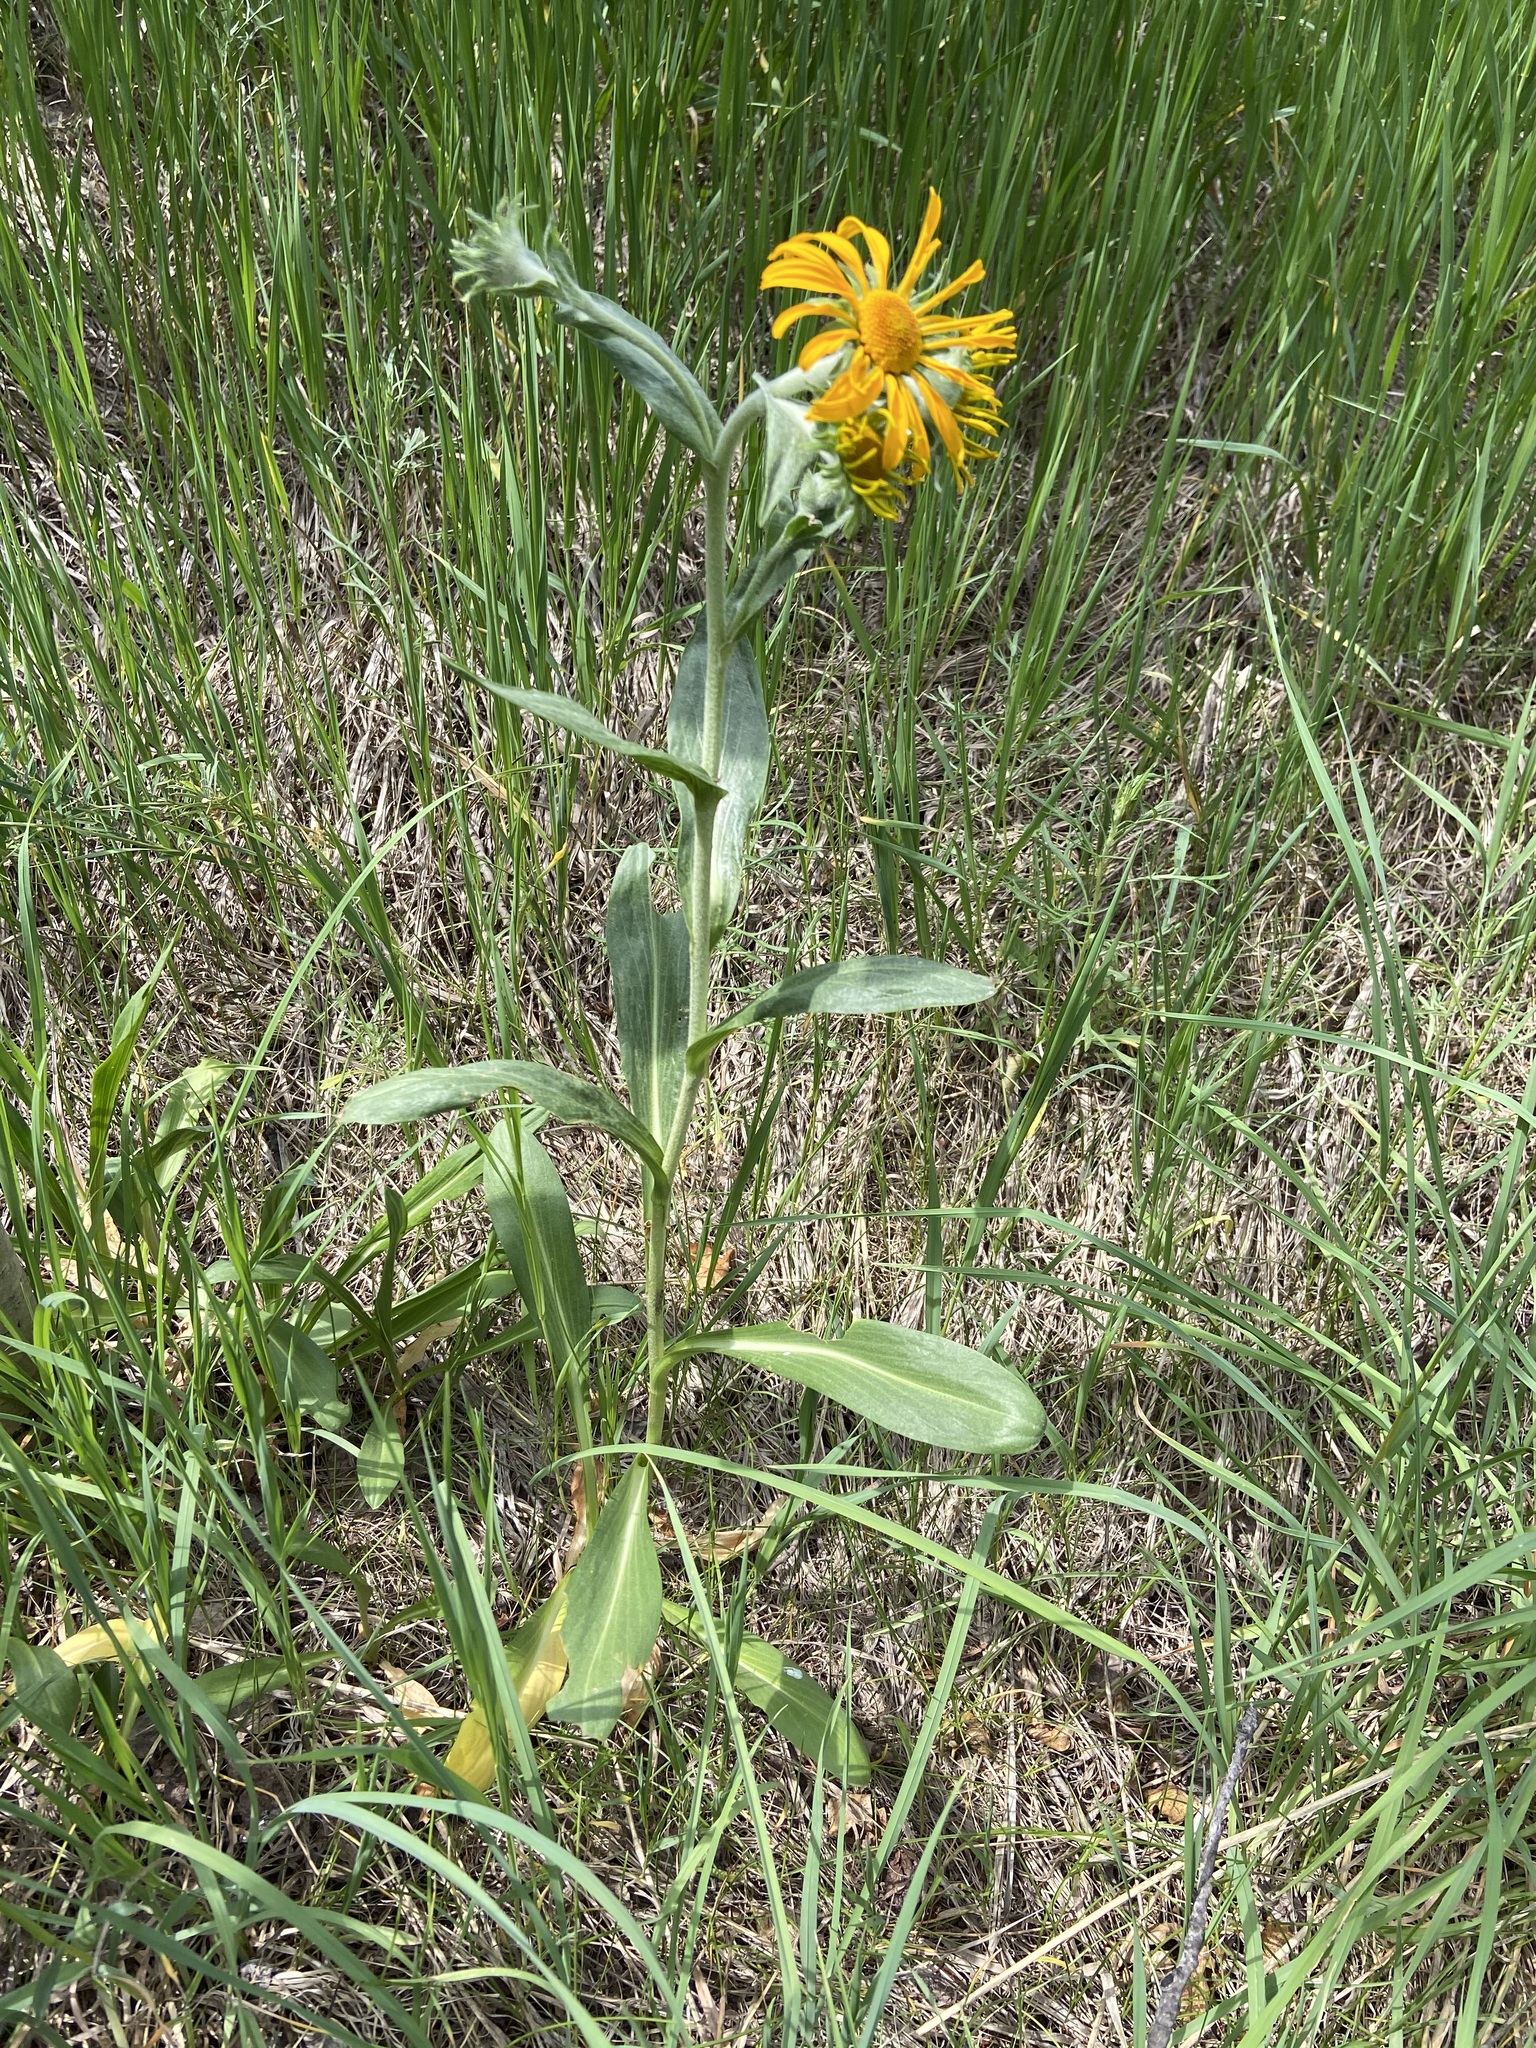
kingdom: Plantae
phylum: Tracheophyta
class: Magnoliopsida
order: Asterales
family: Asteraceae
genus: Hymenoxys
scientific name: Hymenoxys hoopesii
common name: Orange-sneezeweed
